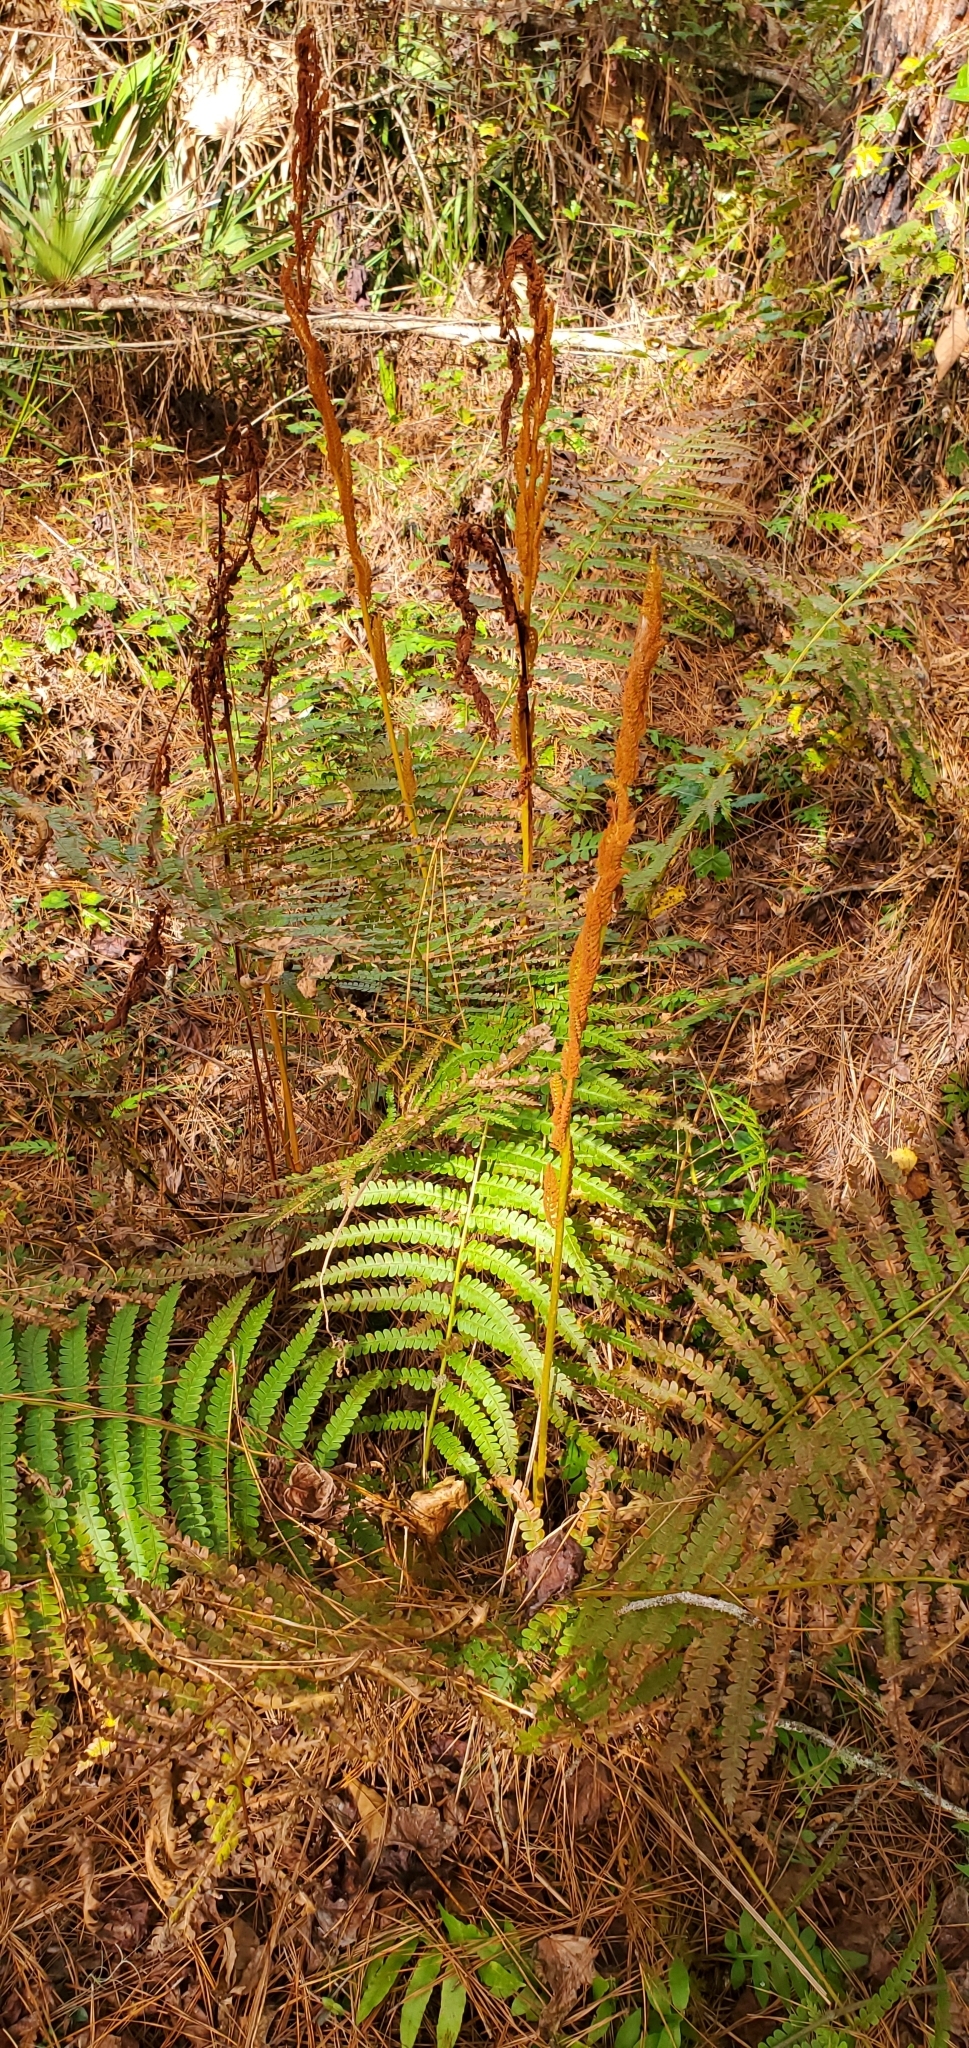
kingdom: Plantae
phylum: Tracheophyta
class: Polypodiopsida
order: Osmundales
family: Osmundaceae
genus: Osmundastrum
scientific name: Osmundastrum cinnamomeum
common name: Cinnamon fern
